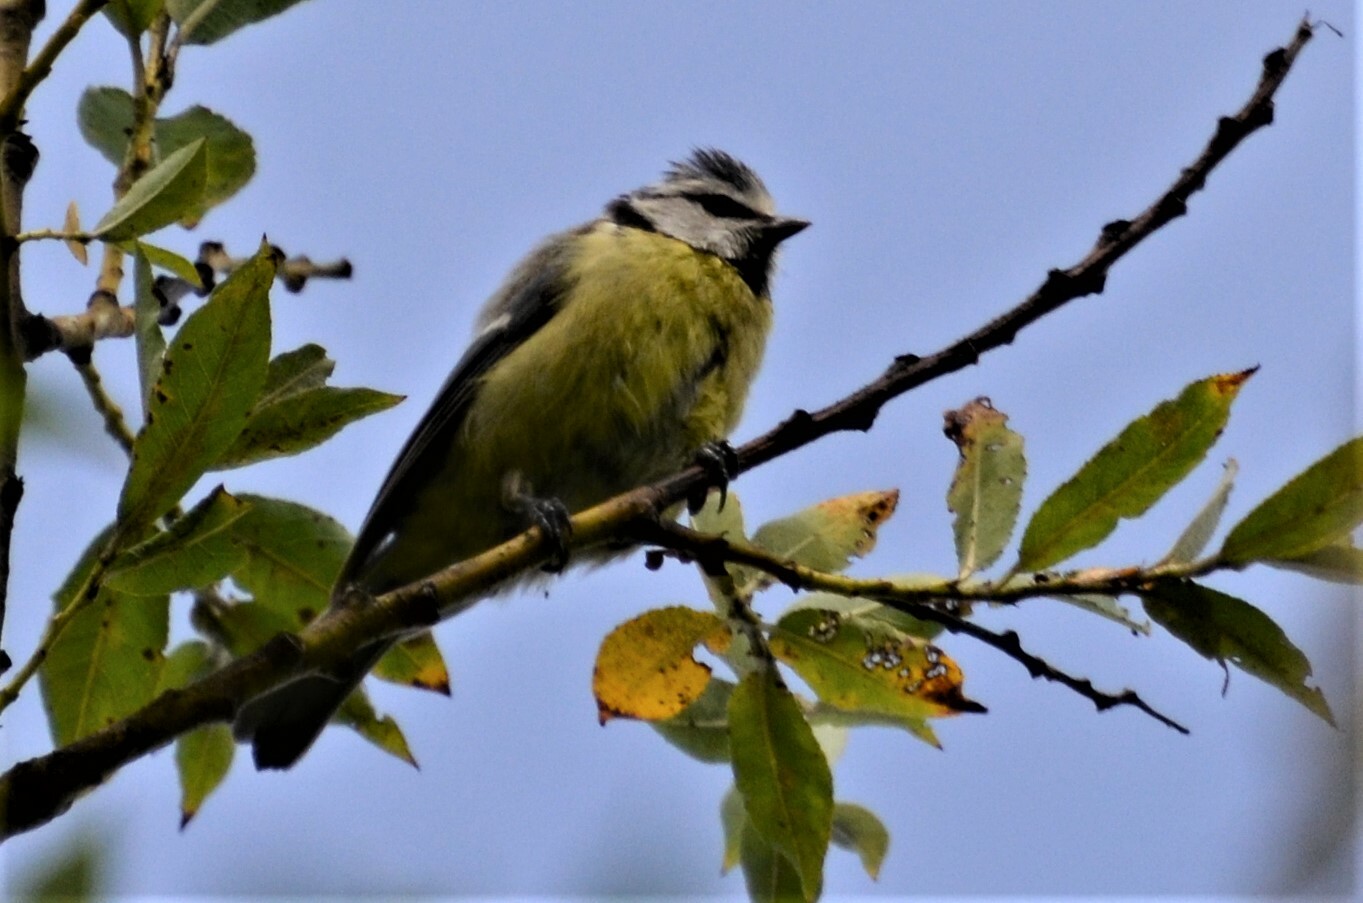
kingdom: Animalia
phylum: Chordata
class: Aves
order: Passeriformes
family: Paridae
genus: Cyanistes
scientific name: Cyanistes caeruleus
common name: Eurasian blue tit
